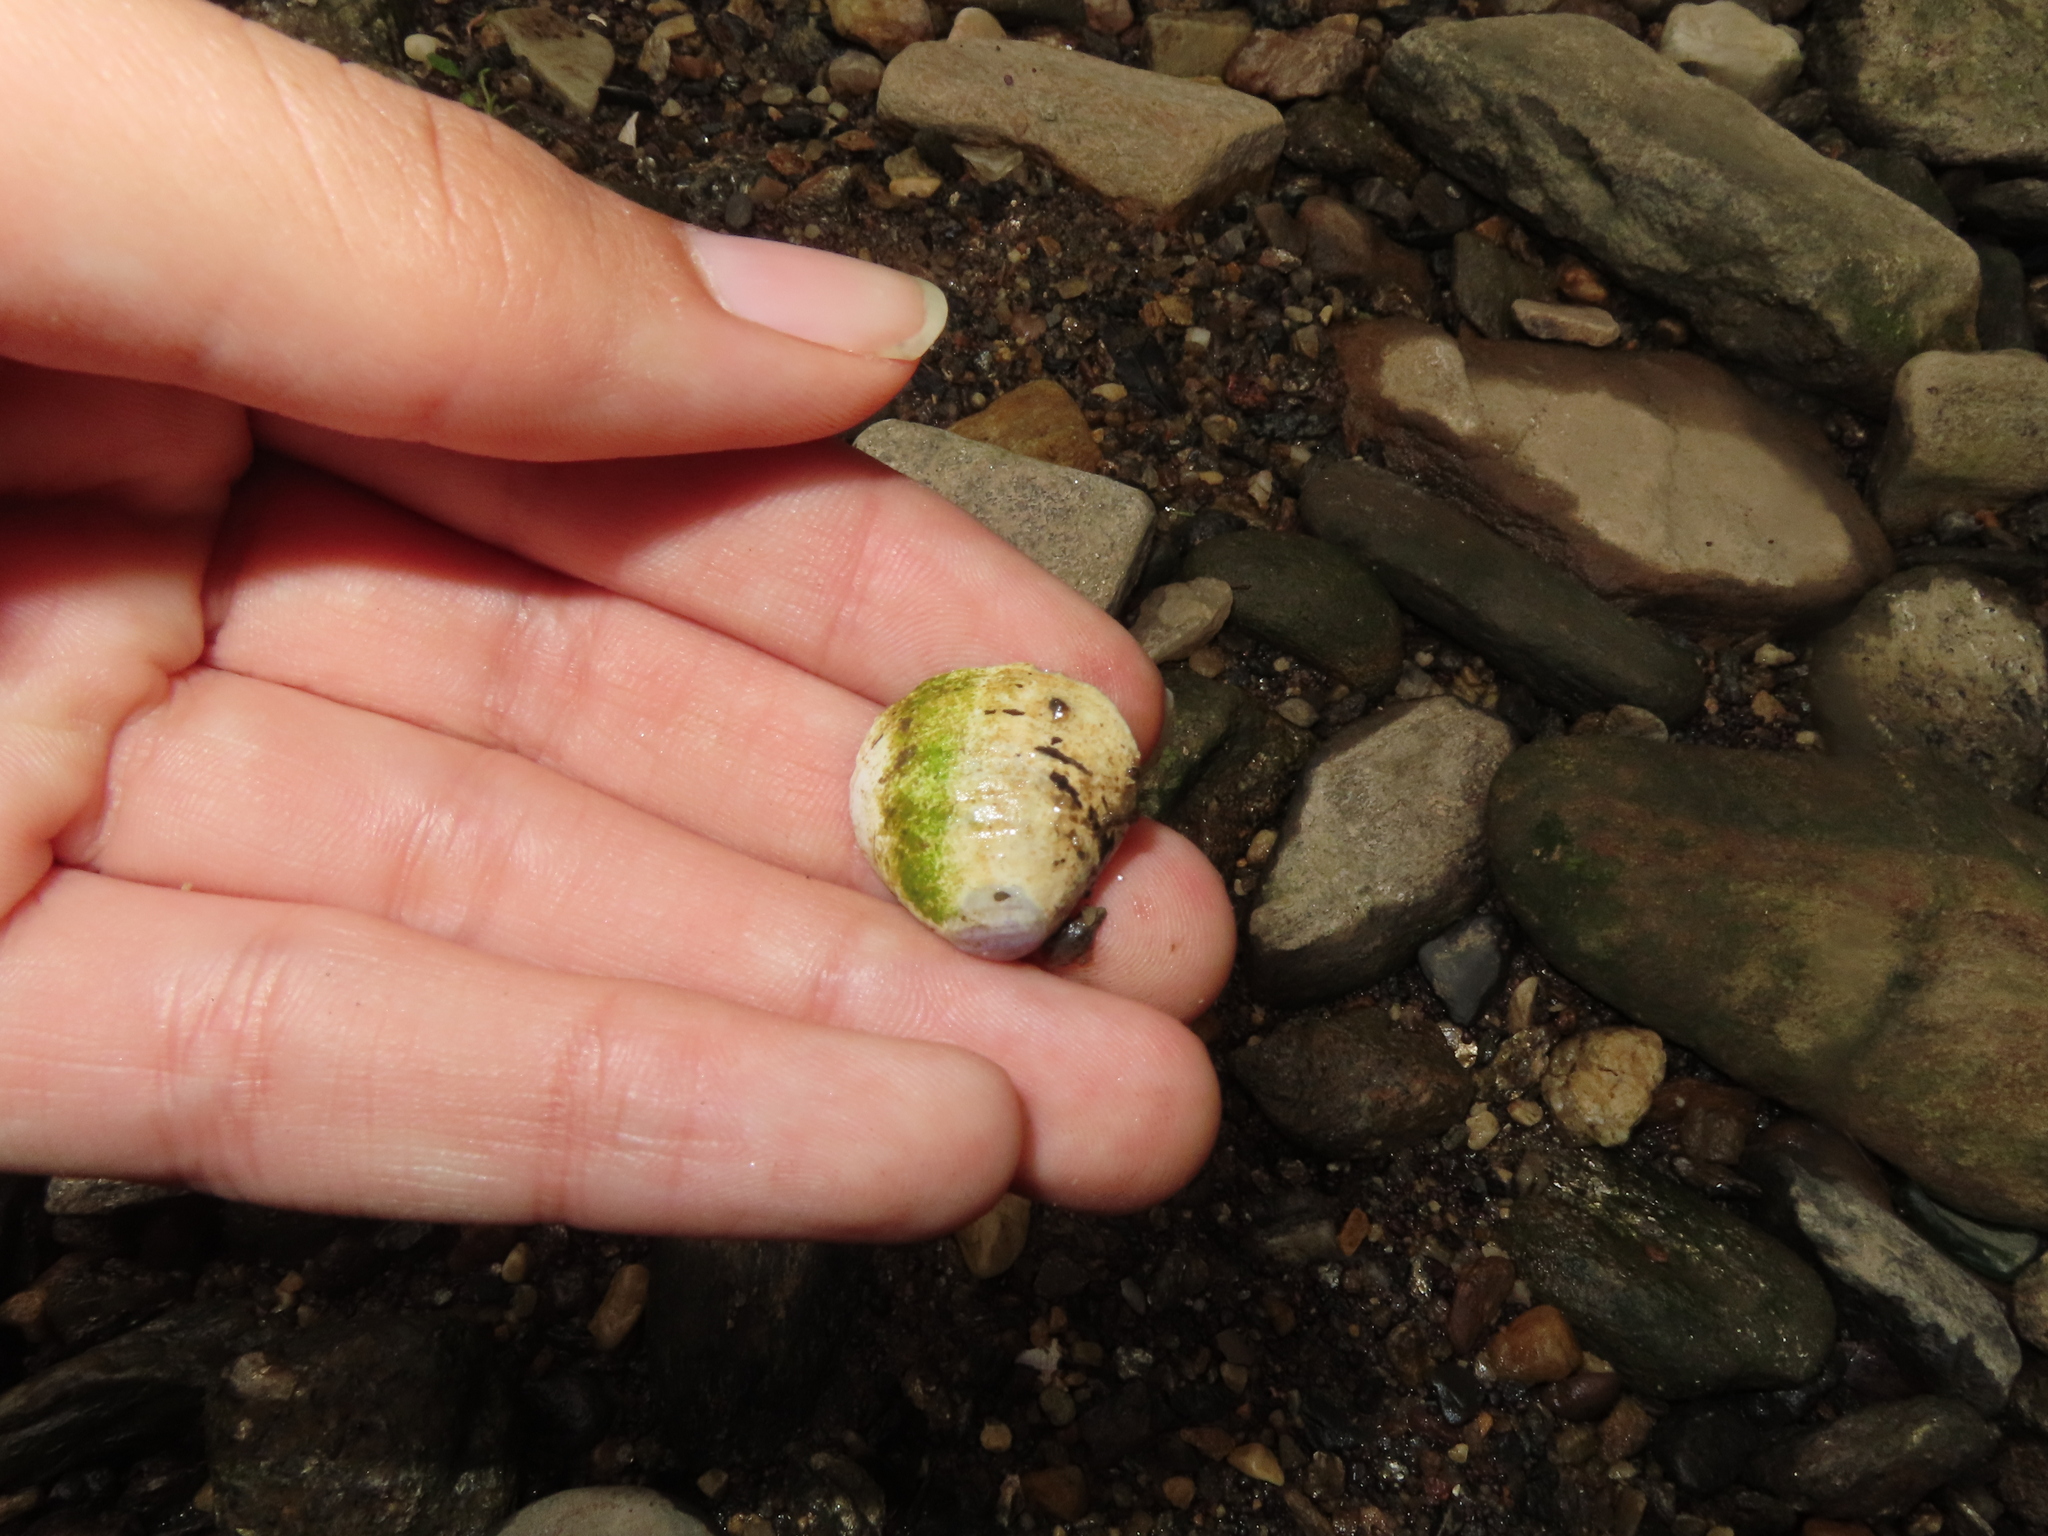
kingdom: Animalia
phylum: Mollusca
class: Bivalvia
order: Venerida
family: Cyrenidae
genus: Corbicula
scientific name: Corbicula fluminea
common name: Asian clam
